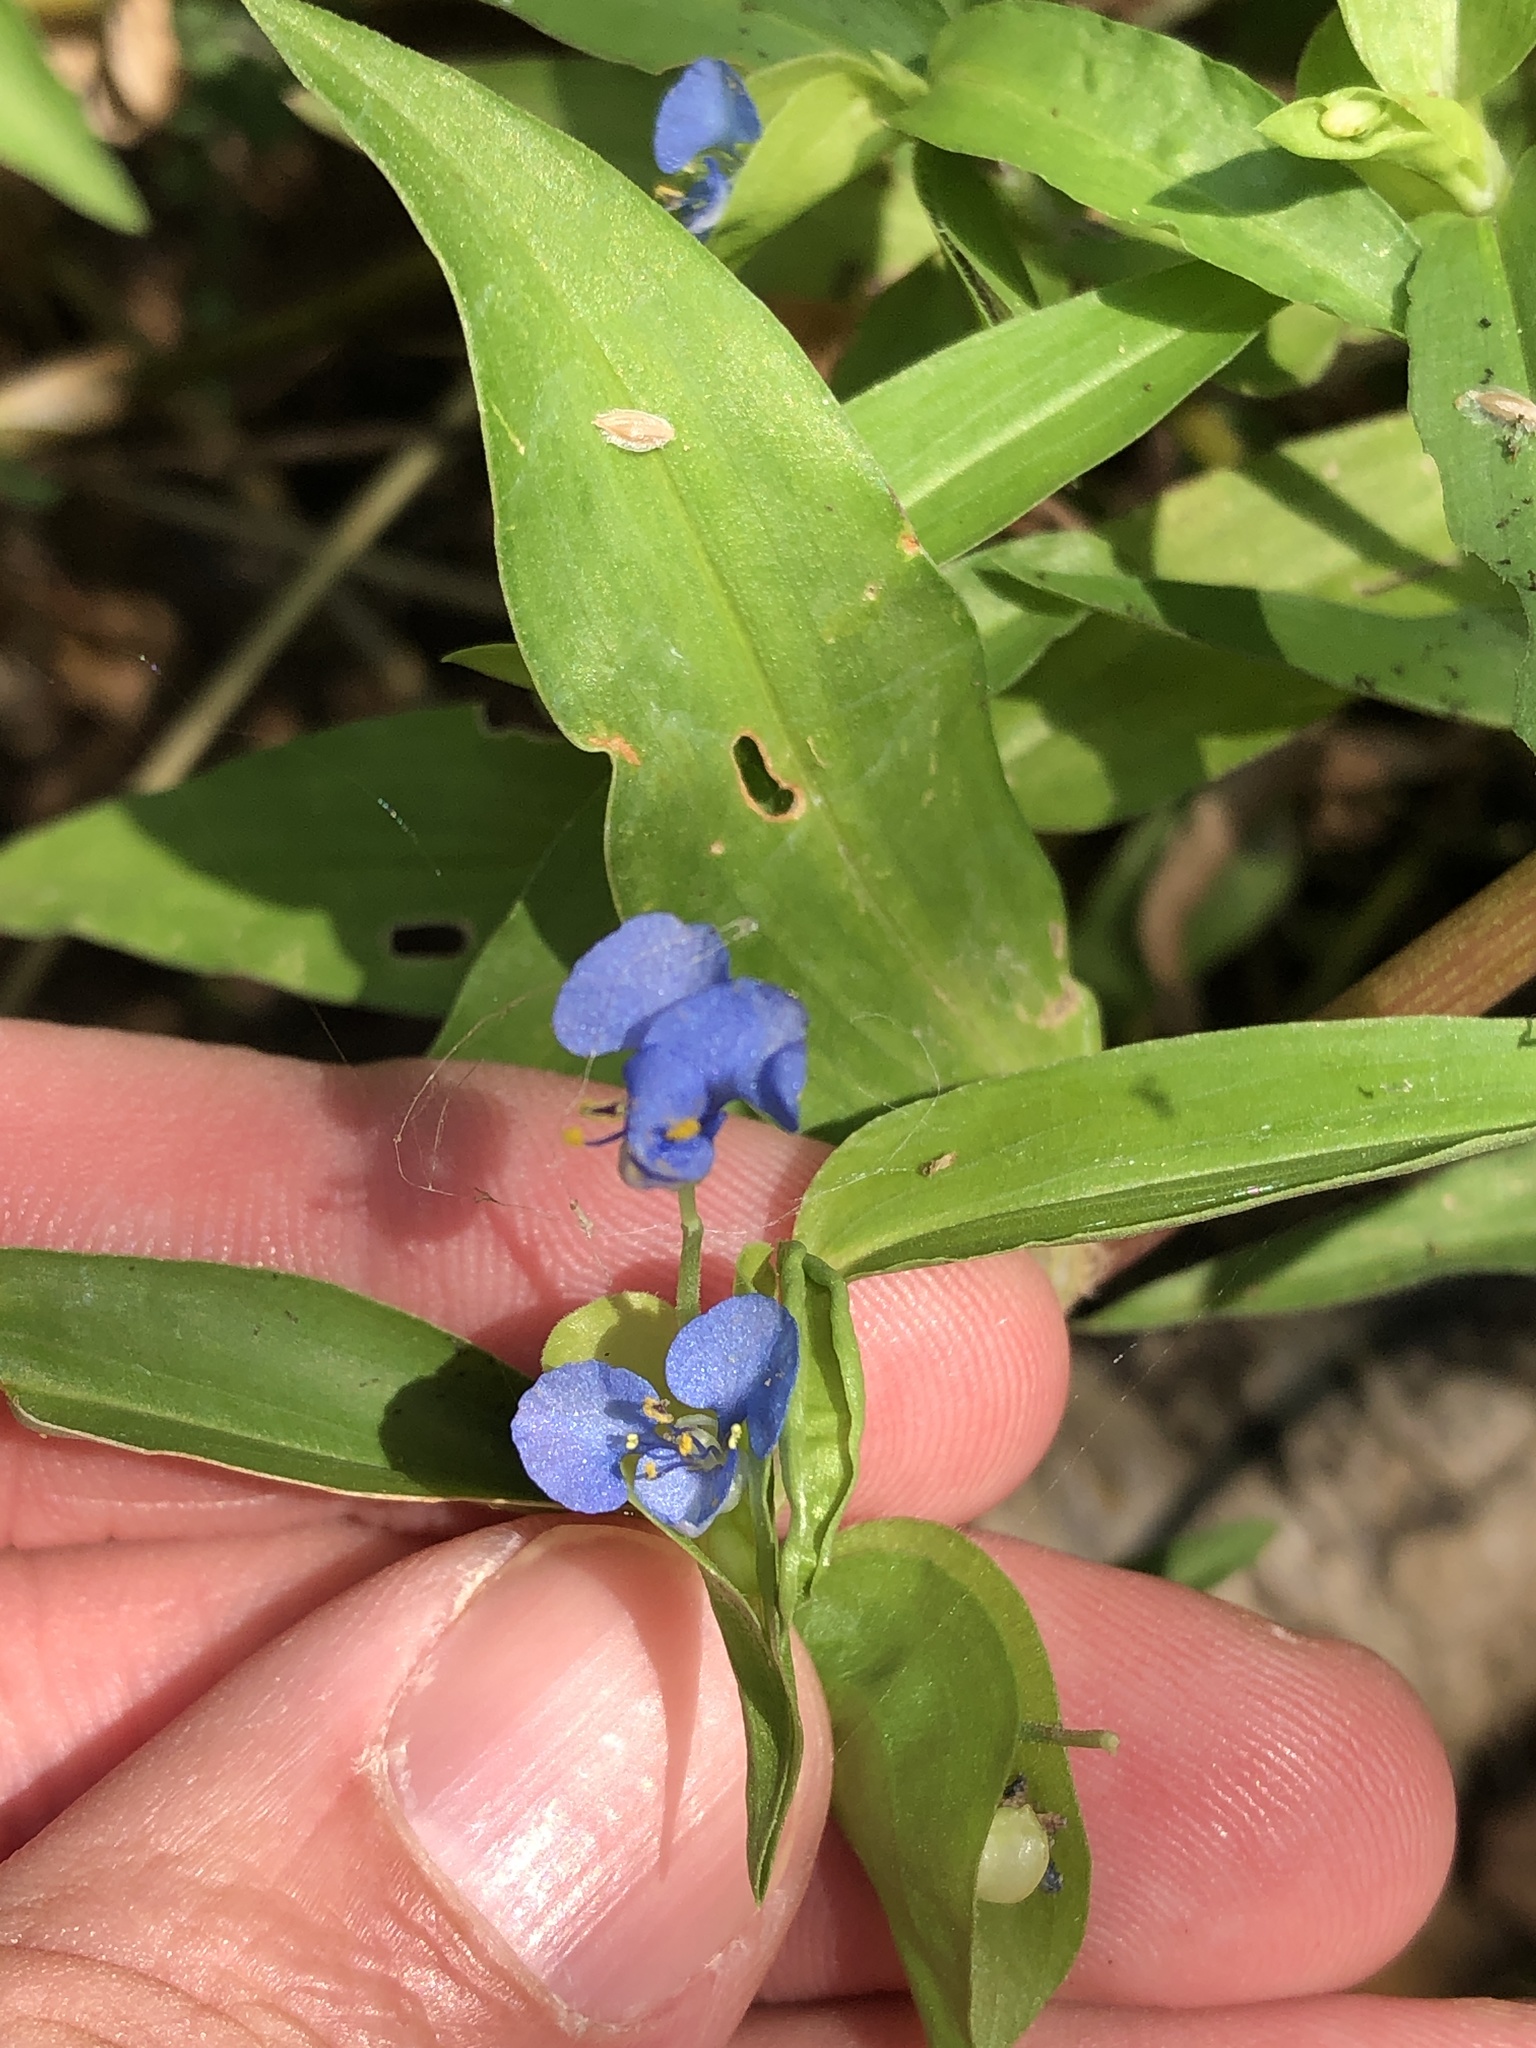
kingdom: Plantae
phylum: Tracheophyta
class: Liliopsida
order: Commelinales
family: Commelinaceae
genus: Commelina
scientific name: Commelina diffusa
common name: Climbing dayflower
